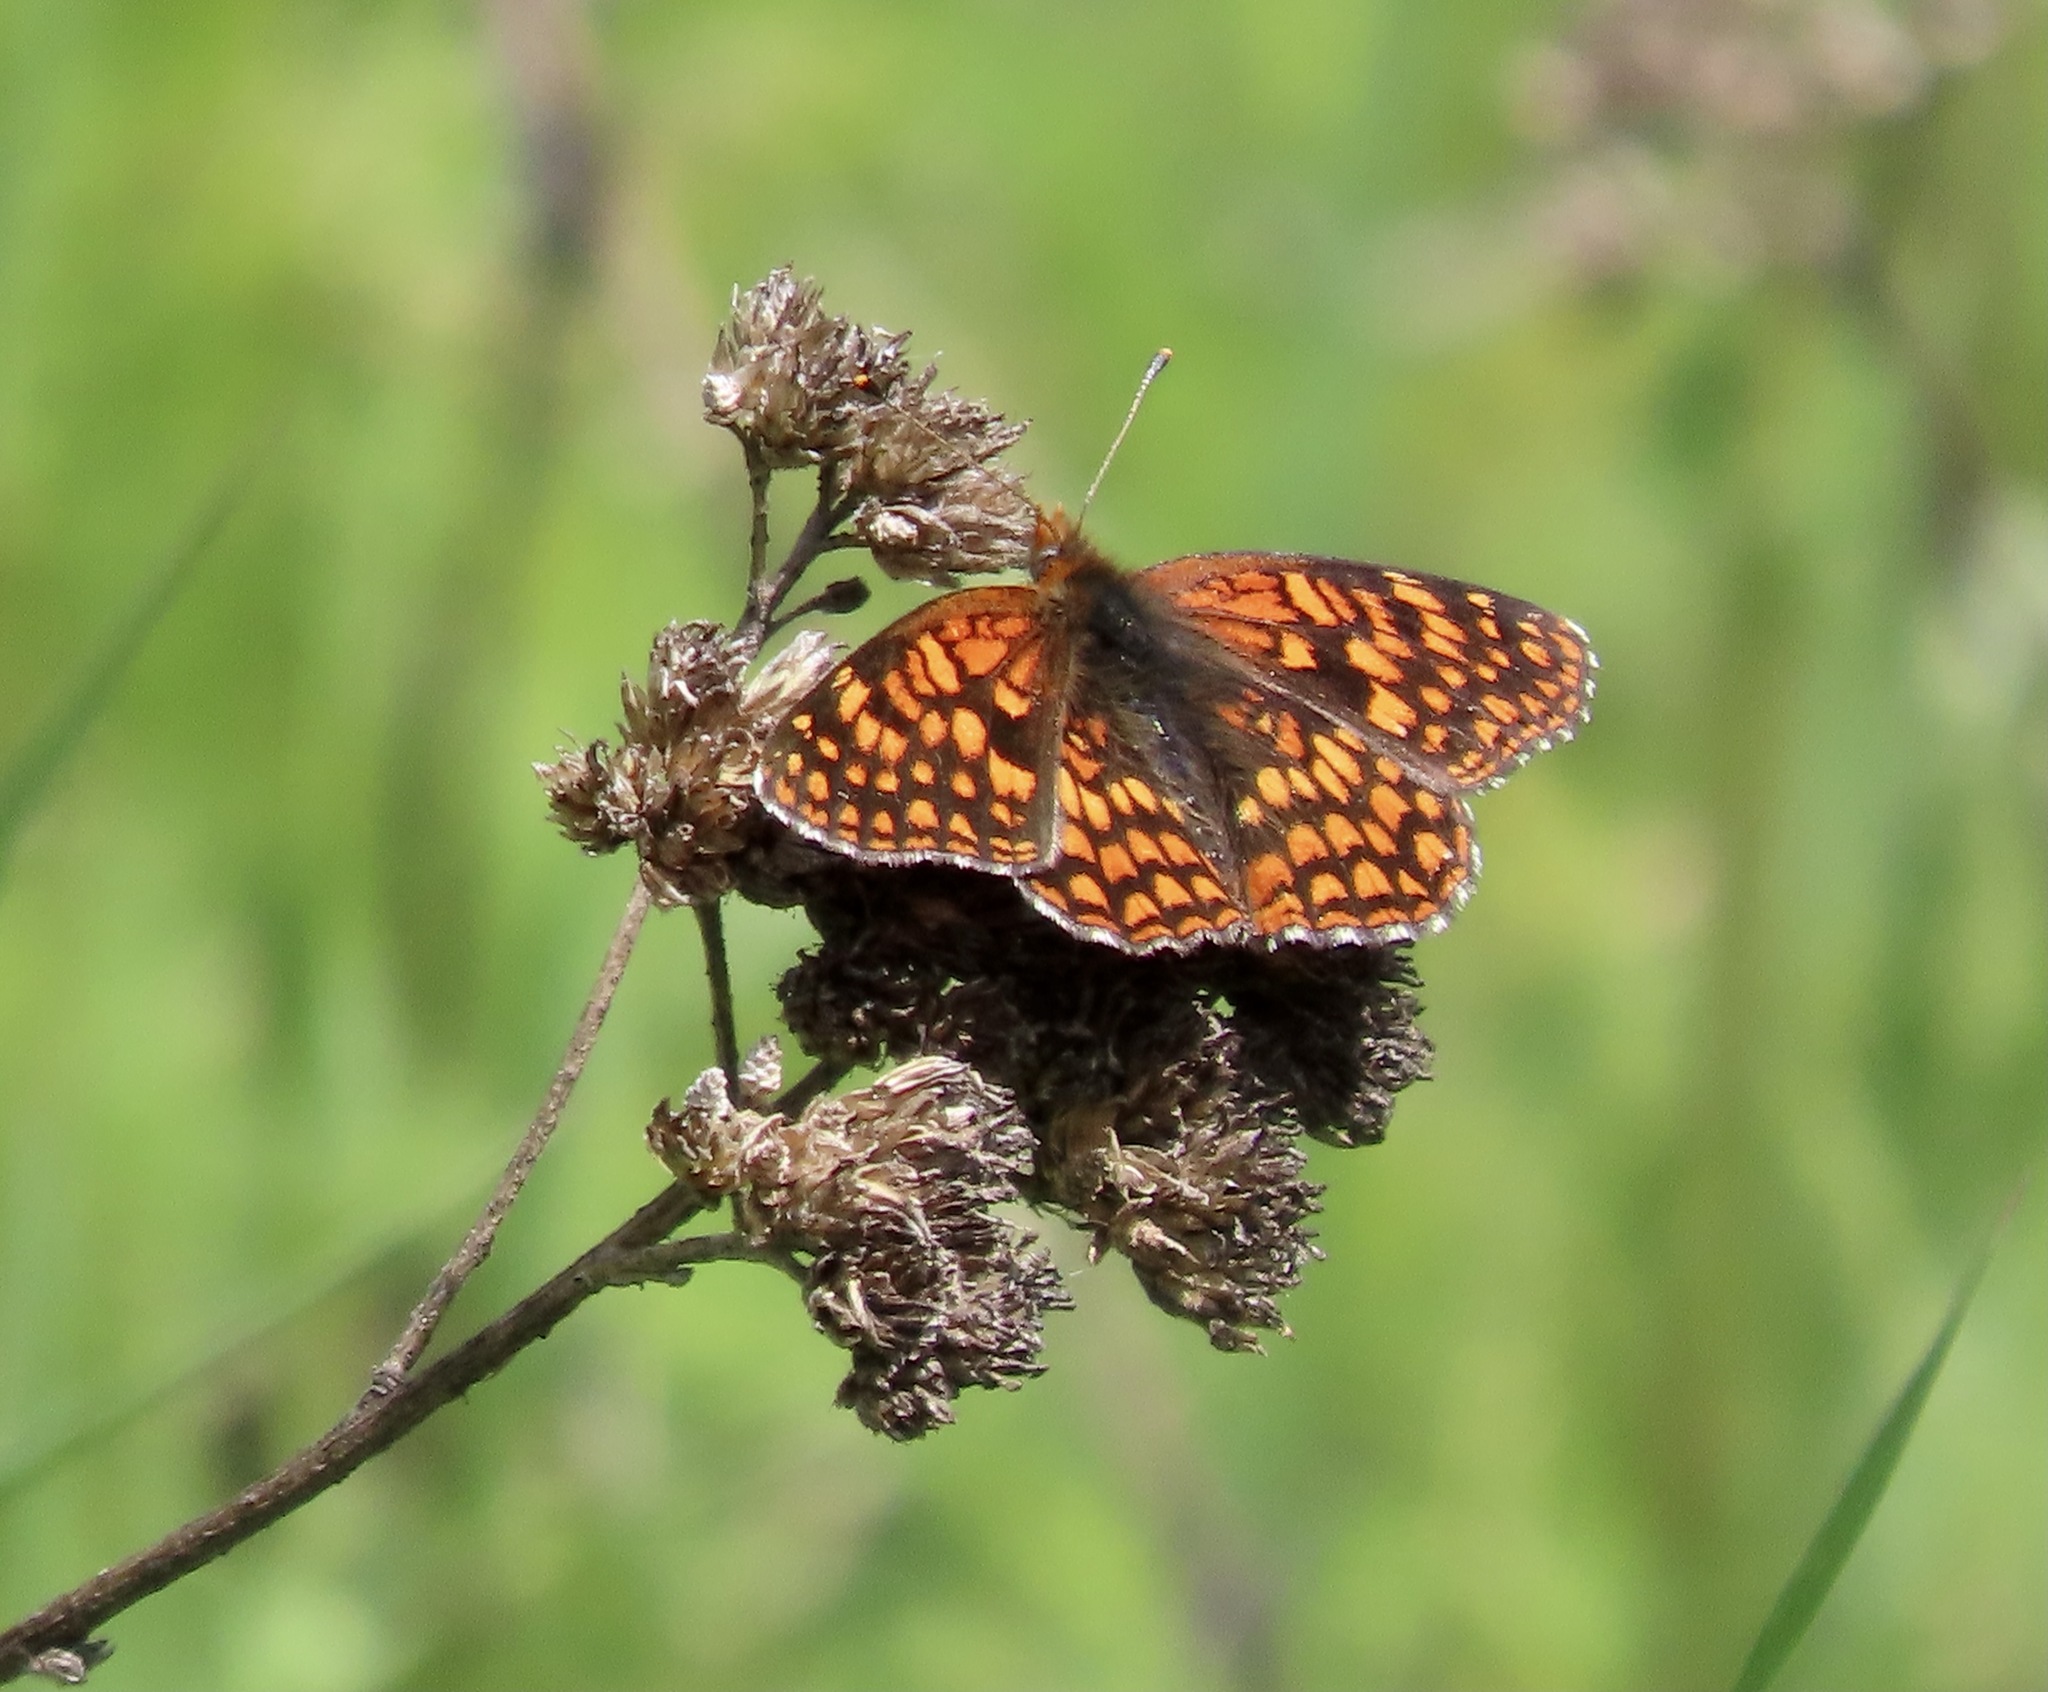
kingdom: Animalia
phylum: Arthropoda
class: Insecta
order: Lepidoptera
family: Nymphalidae
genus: Chlosyne
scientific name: Chlosyne palla
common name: Northern checkerspot
